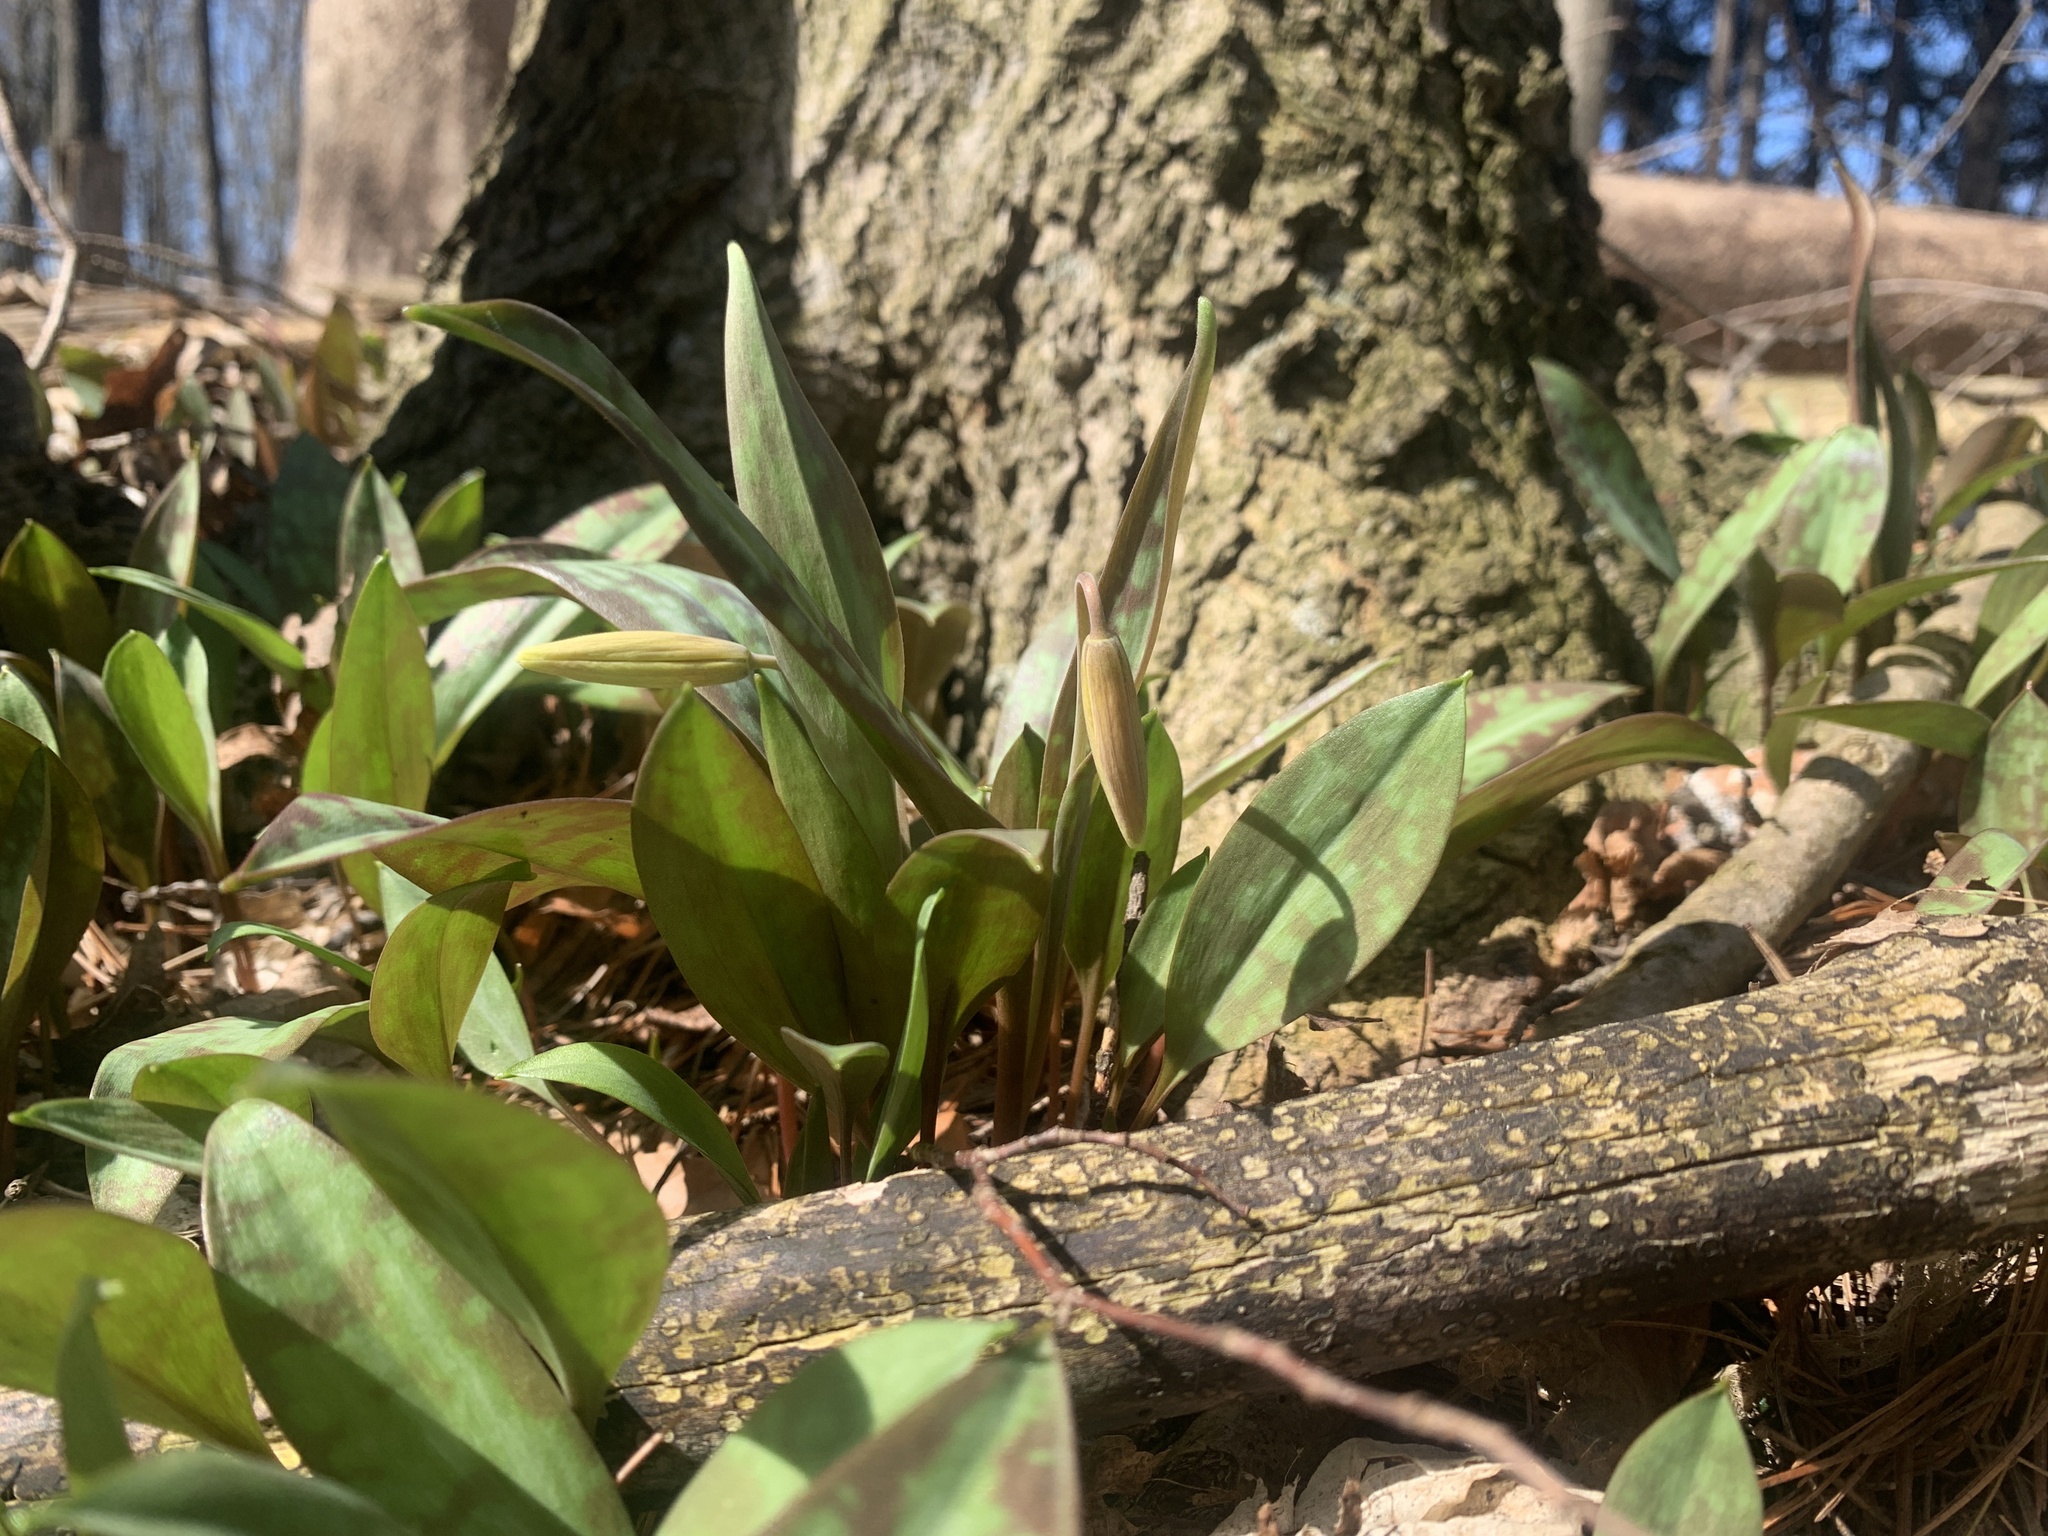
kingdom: Plantae
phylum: Tracheophyta
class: Liliopsida
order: Liliales
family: Liliaceae
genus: Erythronium
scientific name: Erythronium americanum
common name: Yellow adder's-tongue
